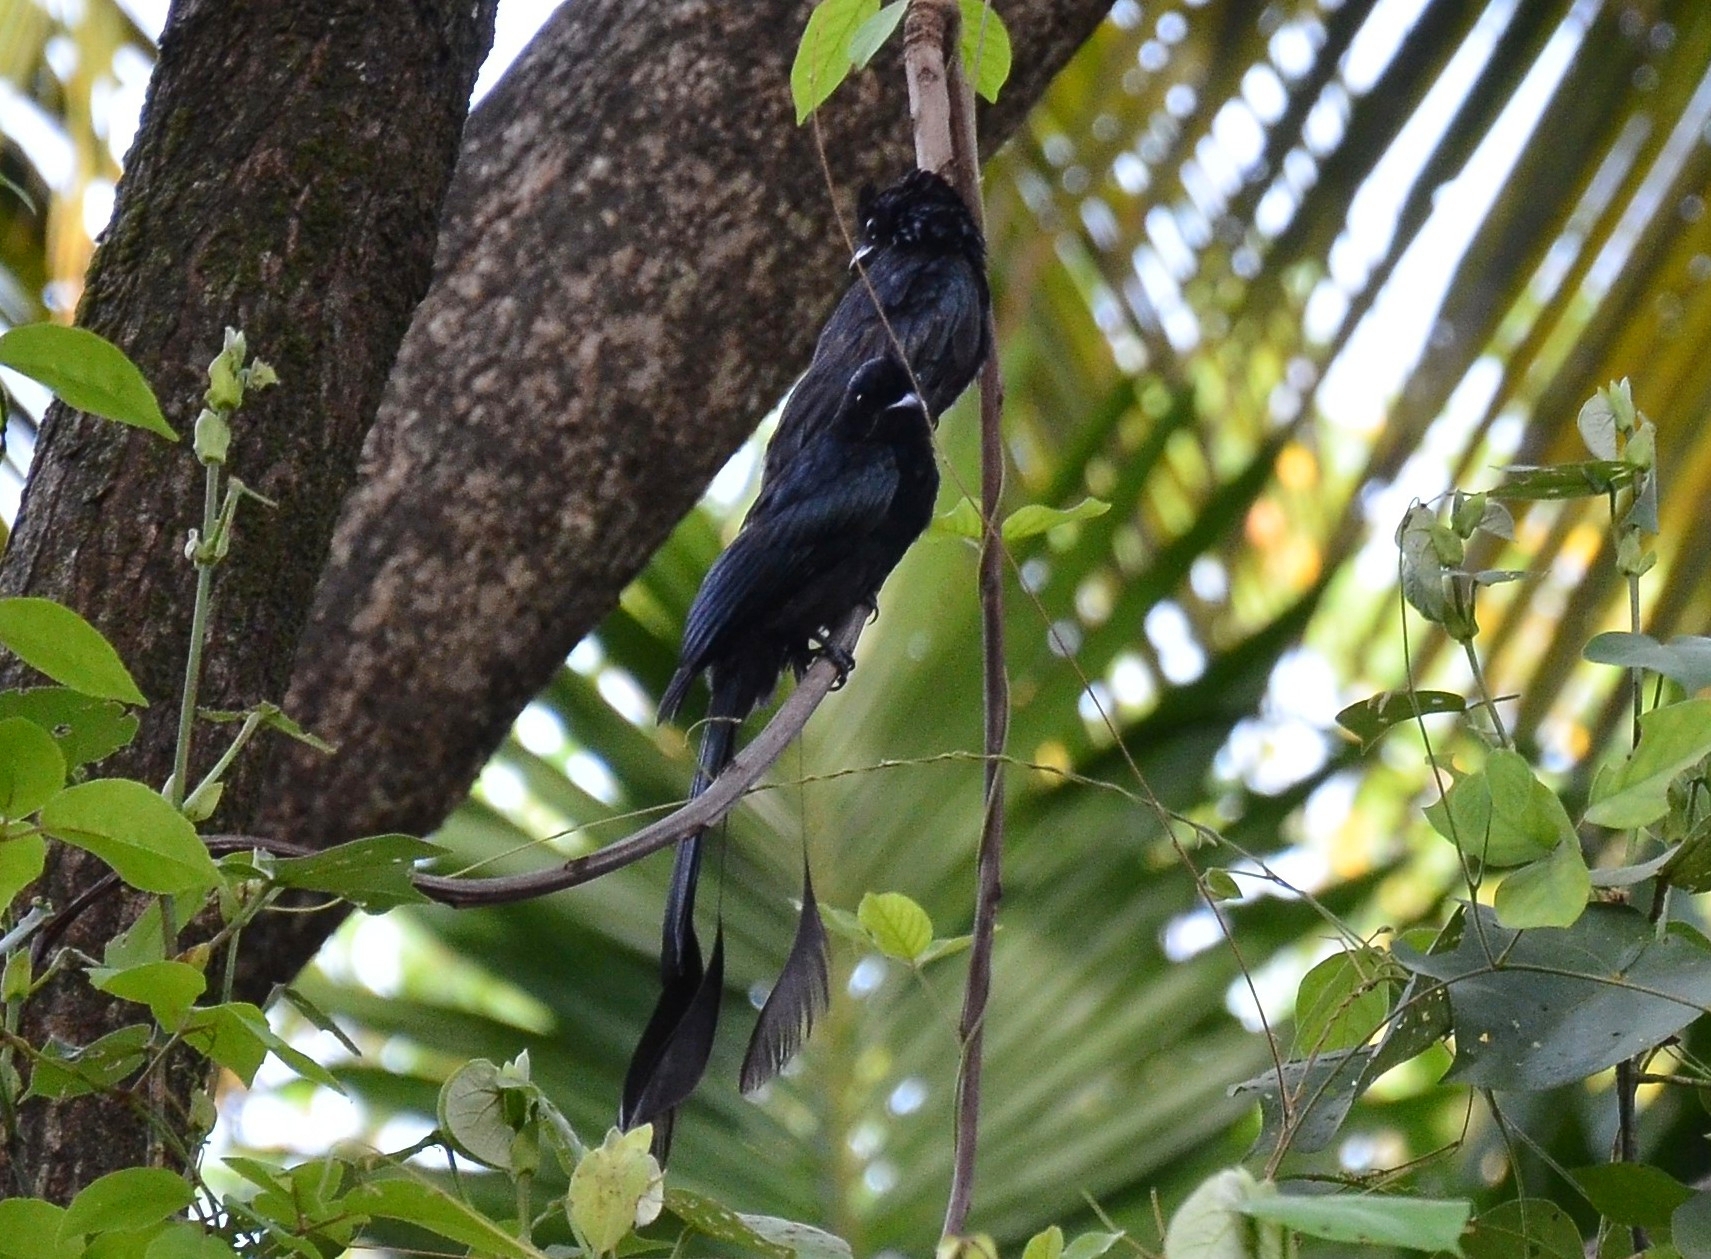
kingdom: Animalia
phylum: Chordata
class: Aves
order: Passeriformes
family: Dicruridae
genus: Dicrurus
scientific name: Dicrurus paradiseus
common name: Greater racket-tailed drongo
